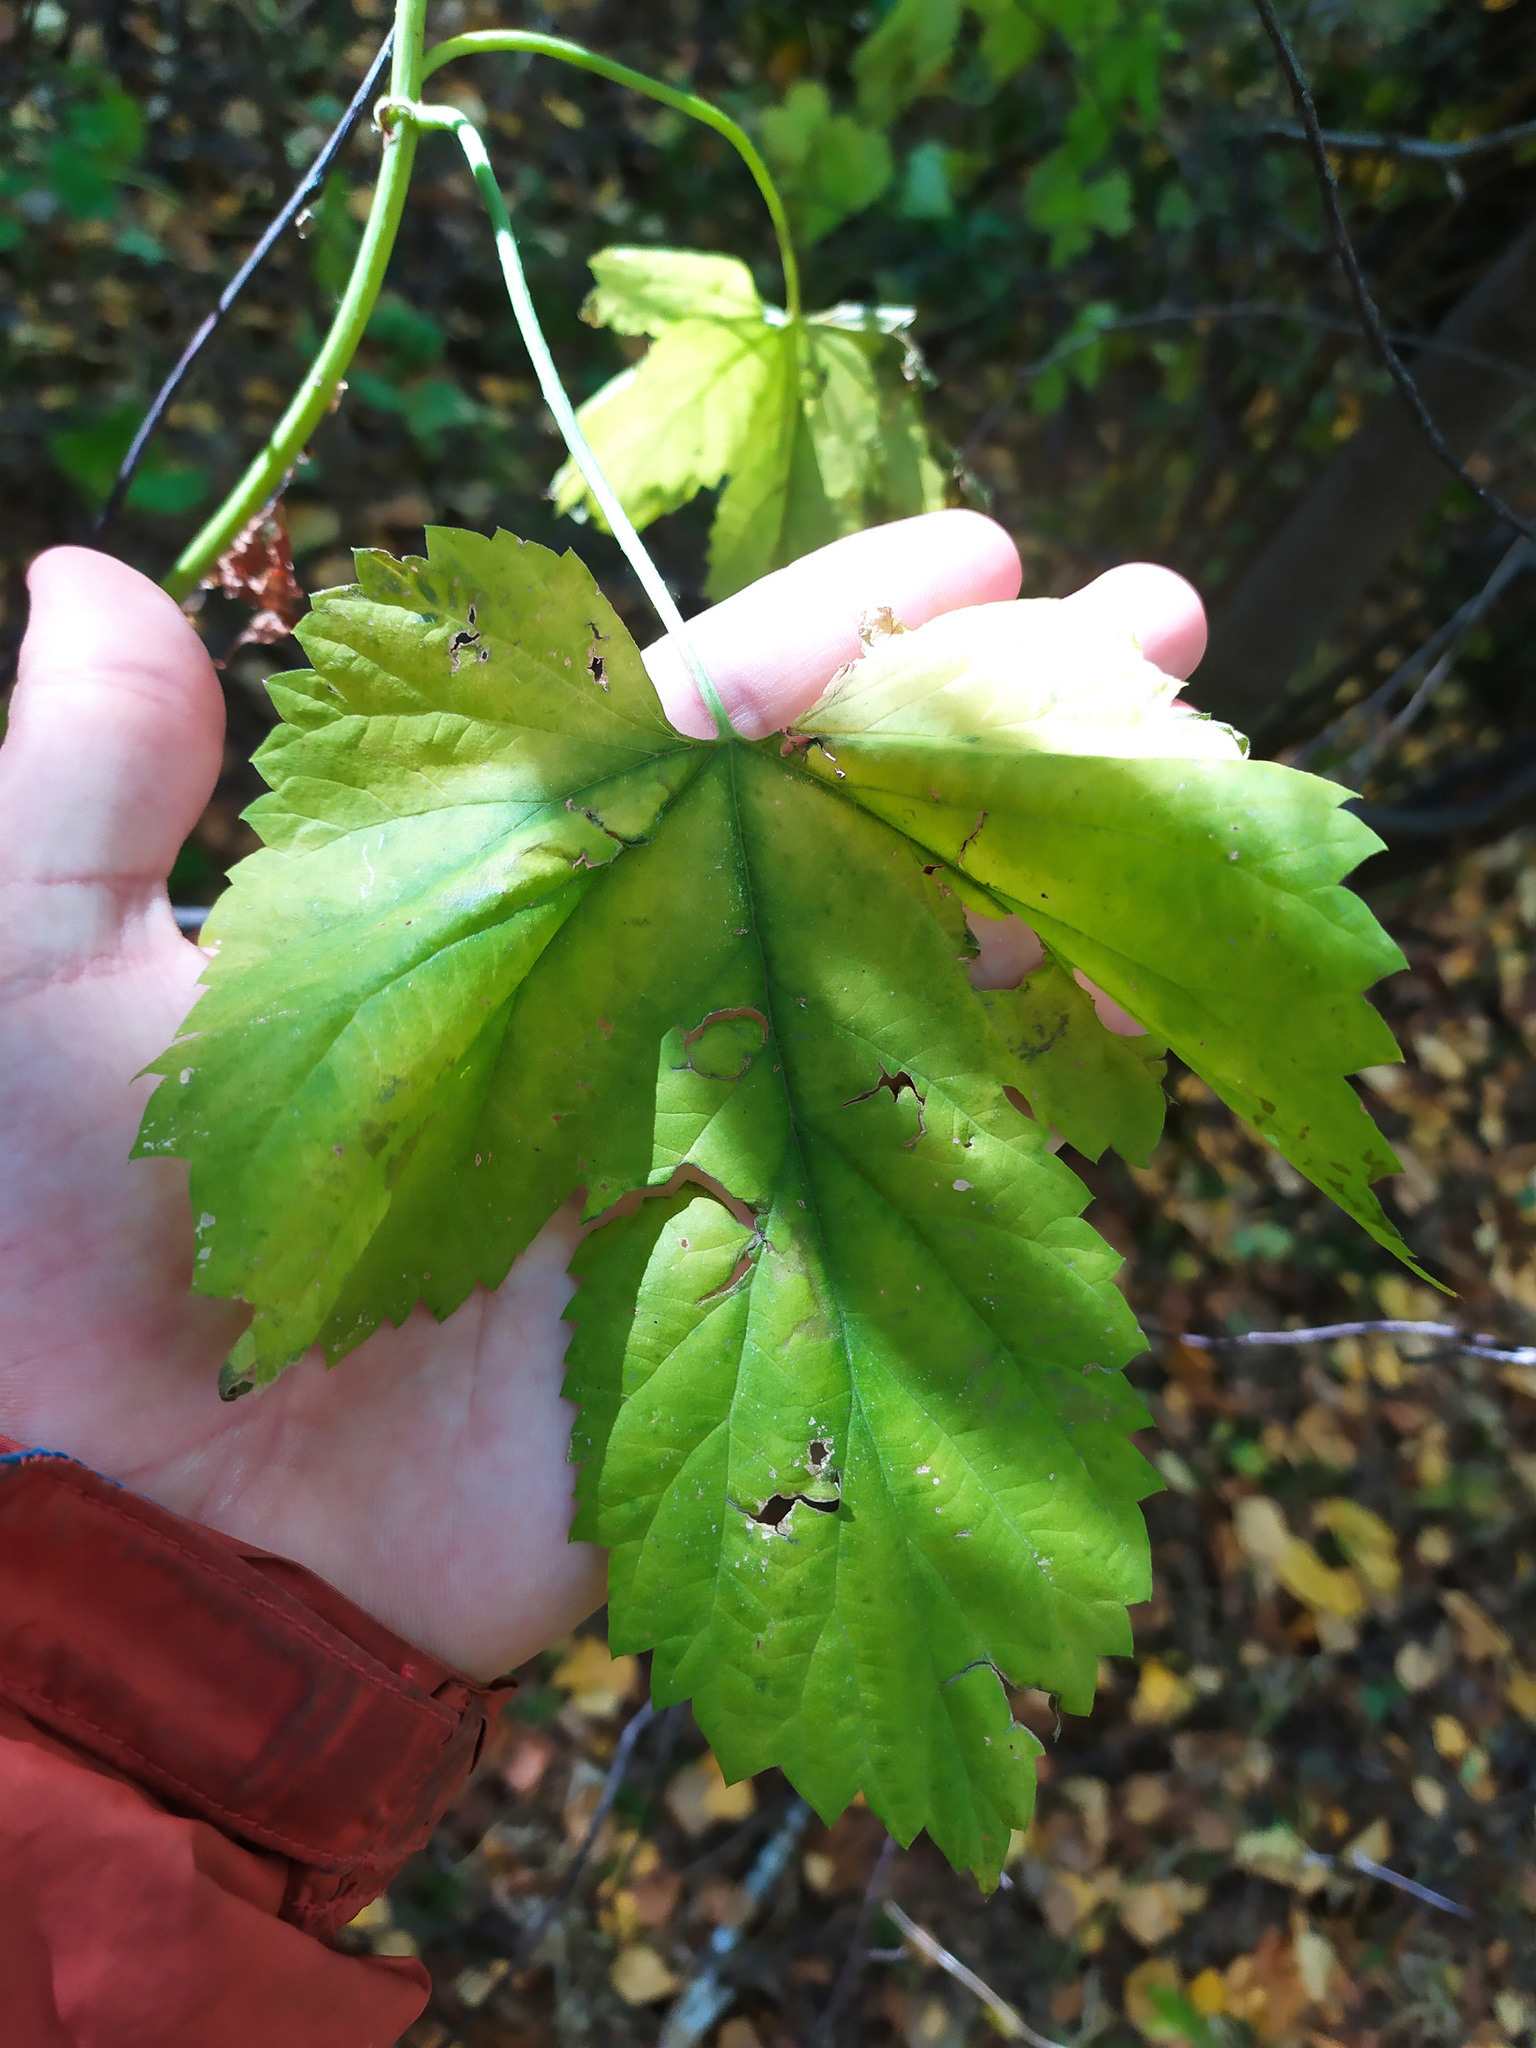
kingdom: Plantae
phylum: Tracheophyta
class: Magnoliopsida
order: Rosales
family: Cannabaceae
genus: Humulus
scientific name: Humulus lupulus
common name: Hop
